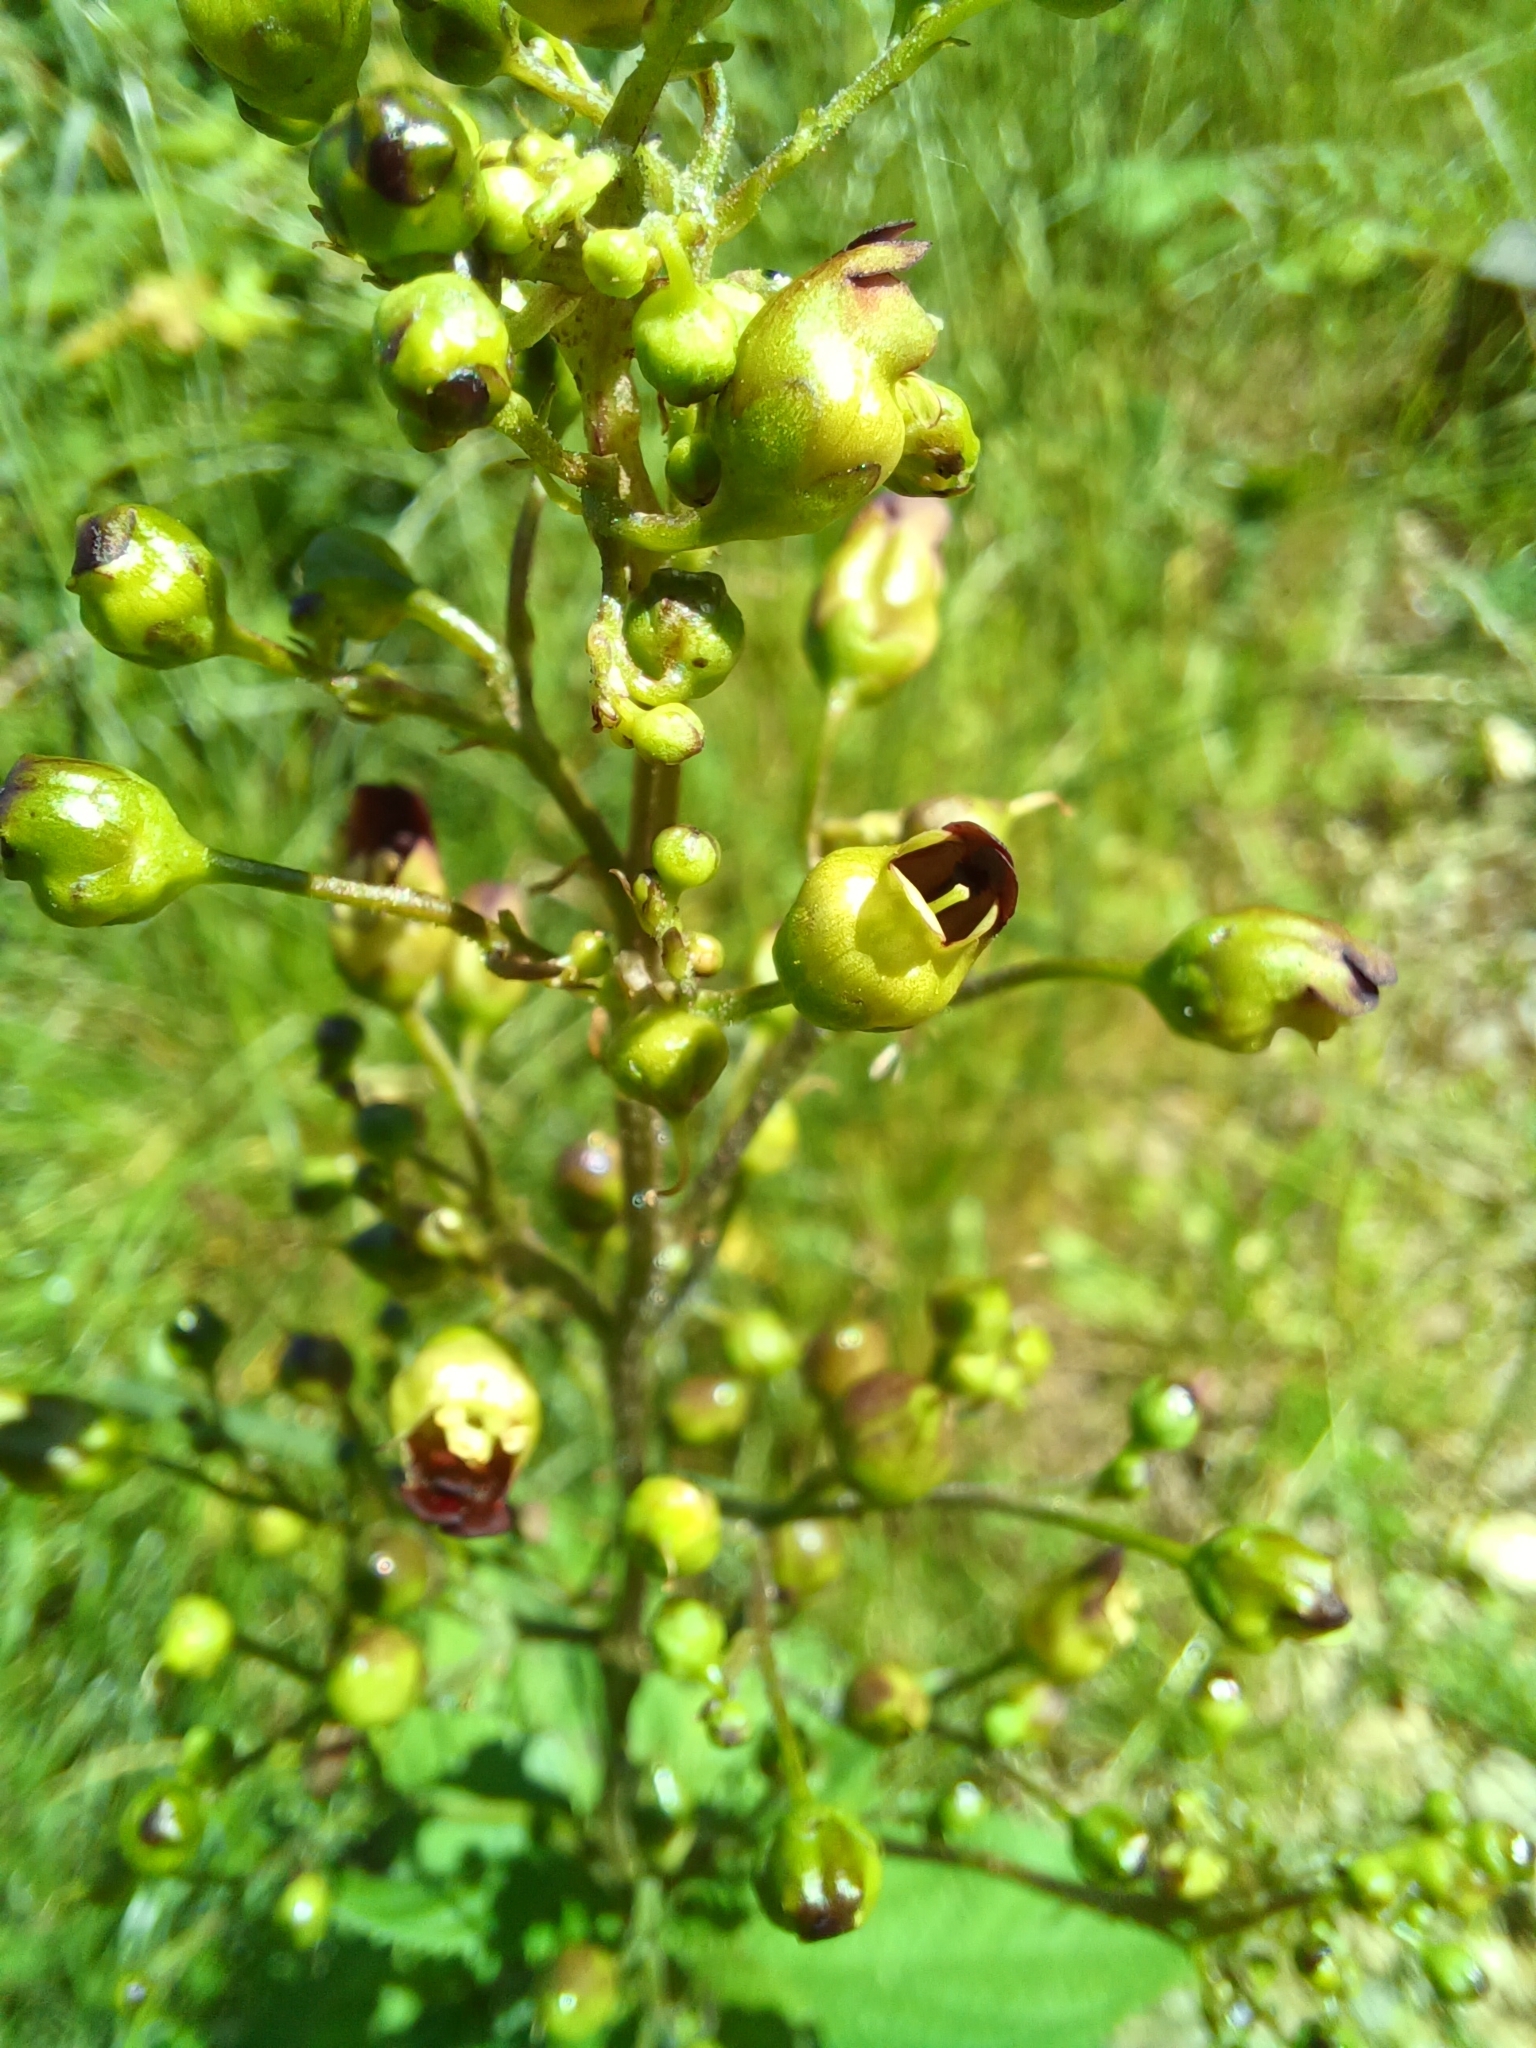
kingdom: Plantae
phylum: Tracheophyta
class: Magnoliopsida
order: Lamiales
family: Scrophulariaceae
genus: Scrophularia
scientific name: Scrophularia nodosa
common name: Common figwort
